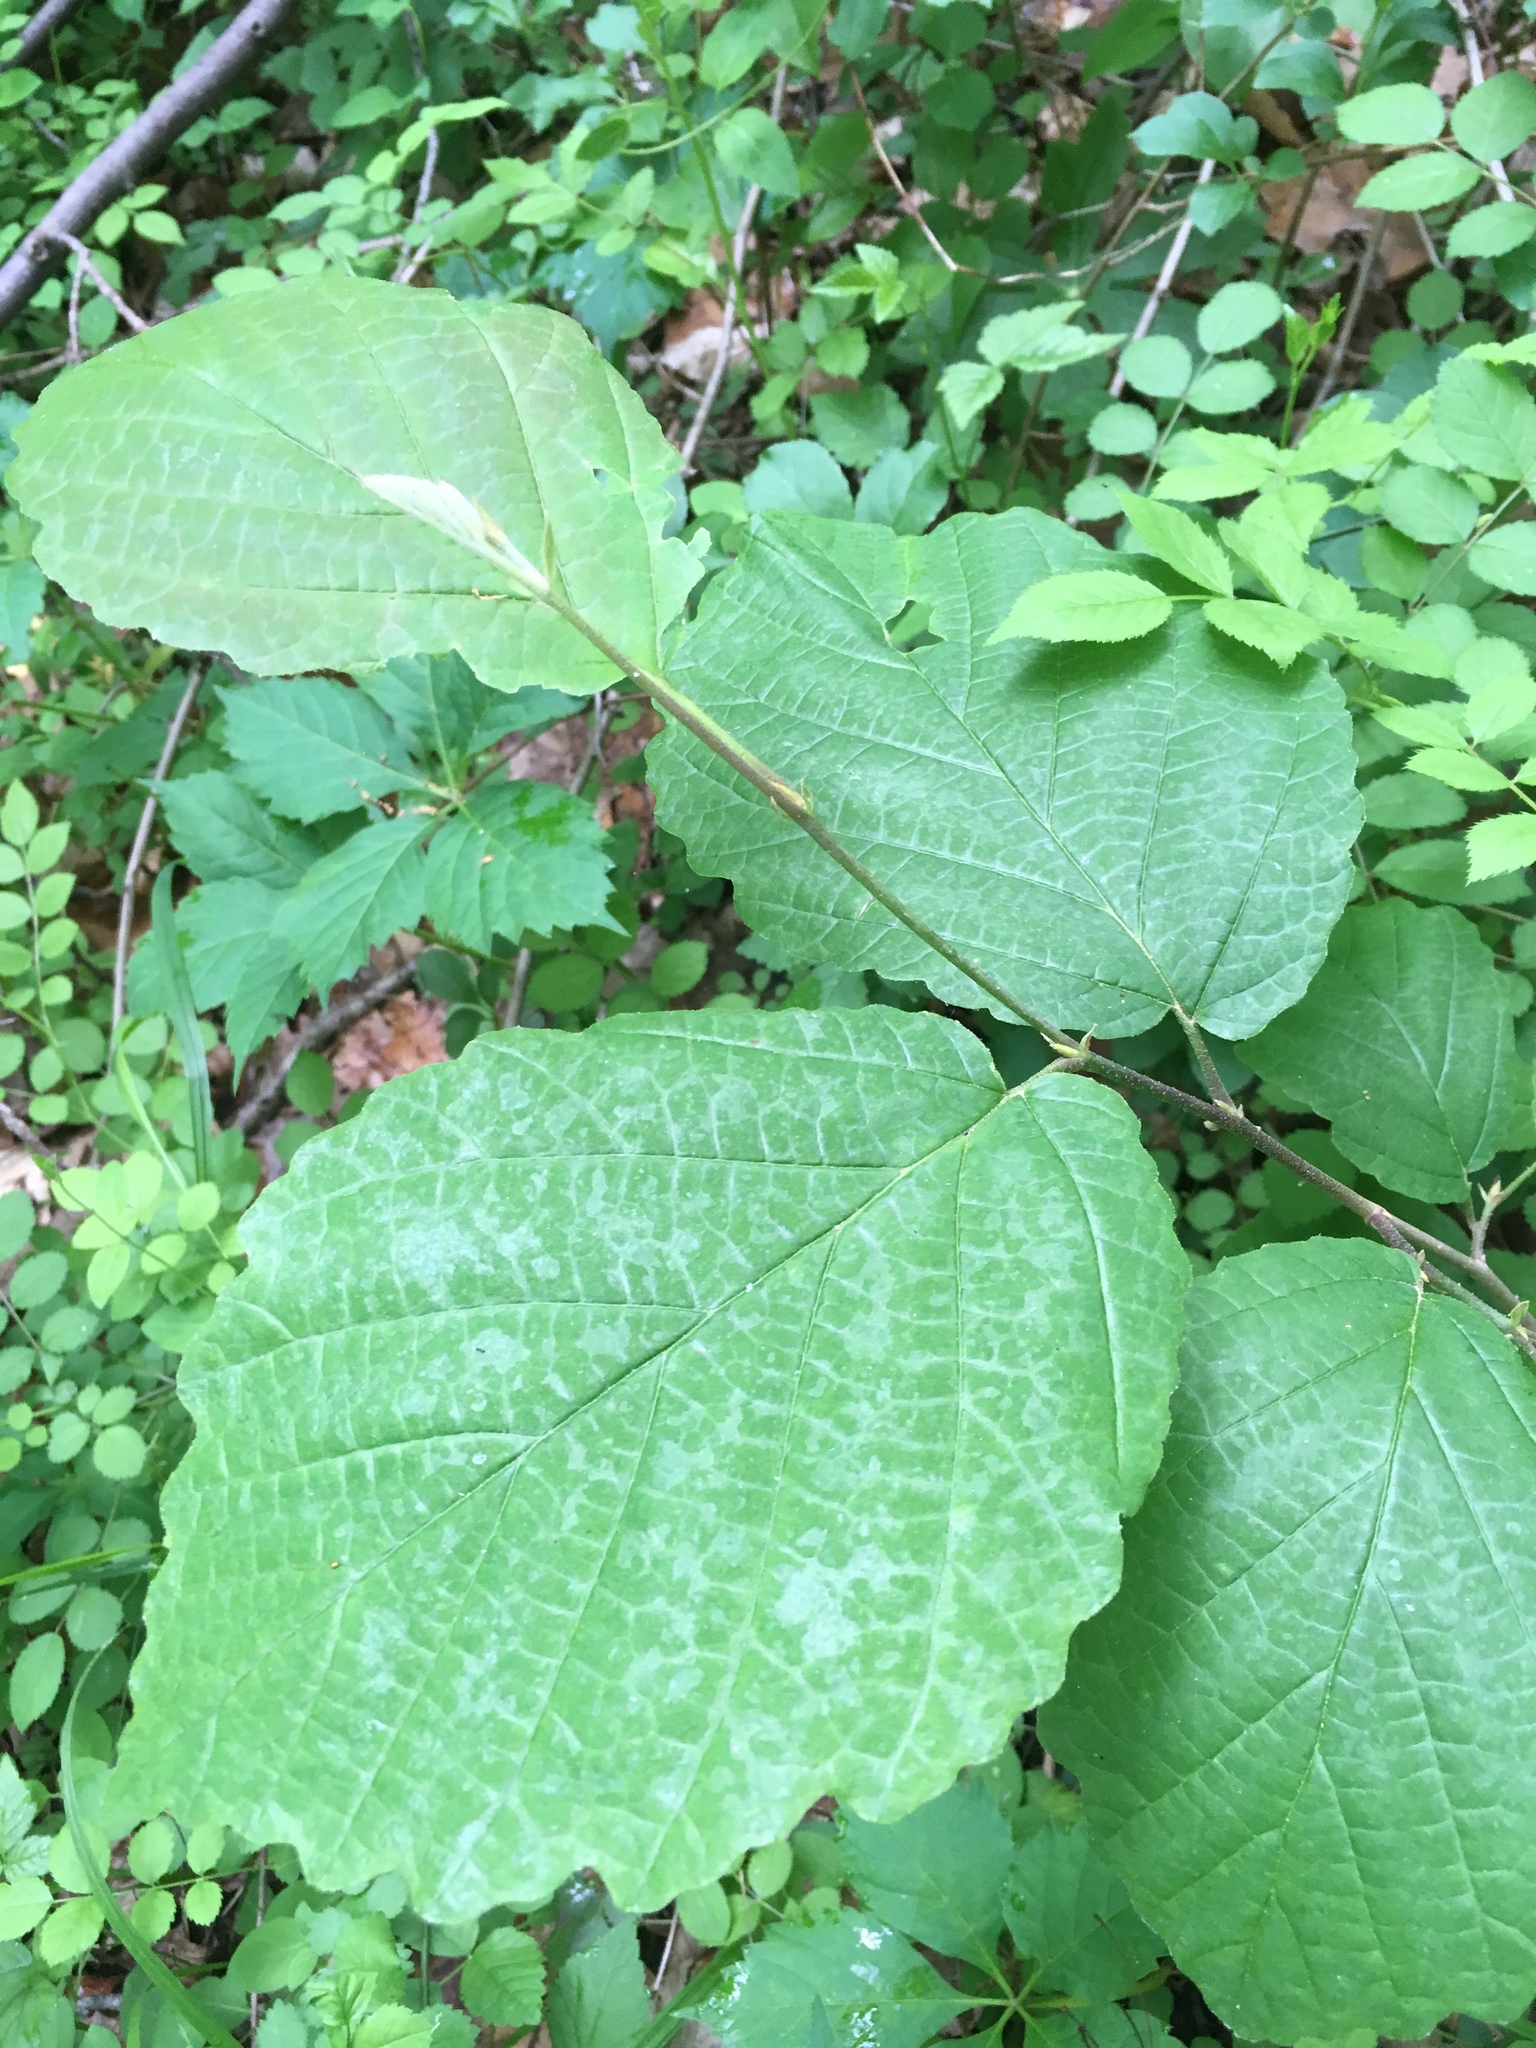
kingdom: Plantae
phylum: Tracheophyta
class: Magnoliopsida
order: Saxifragales
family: Hamamelidaceae
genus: Hamamelis
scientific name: Hamamelis virginiana
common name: Witch-hazel
